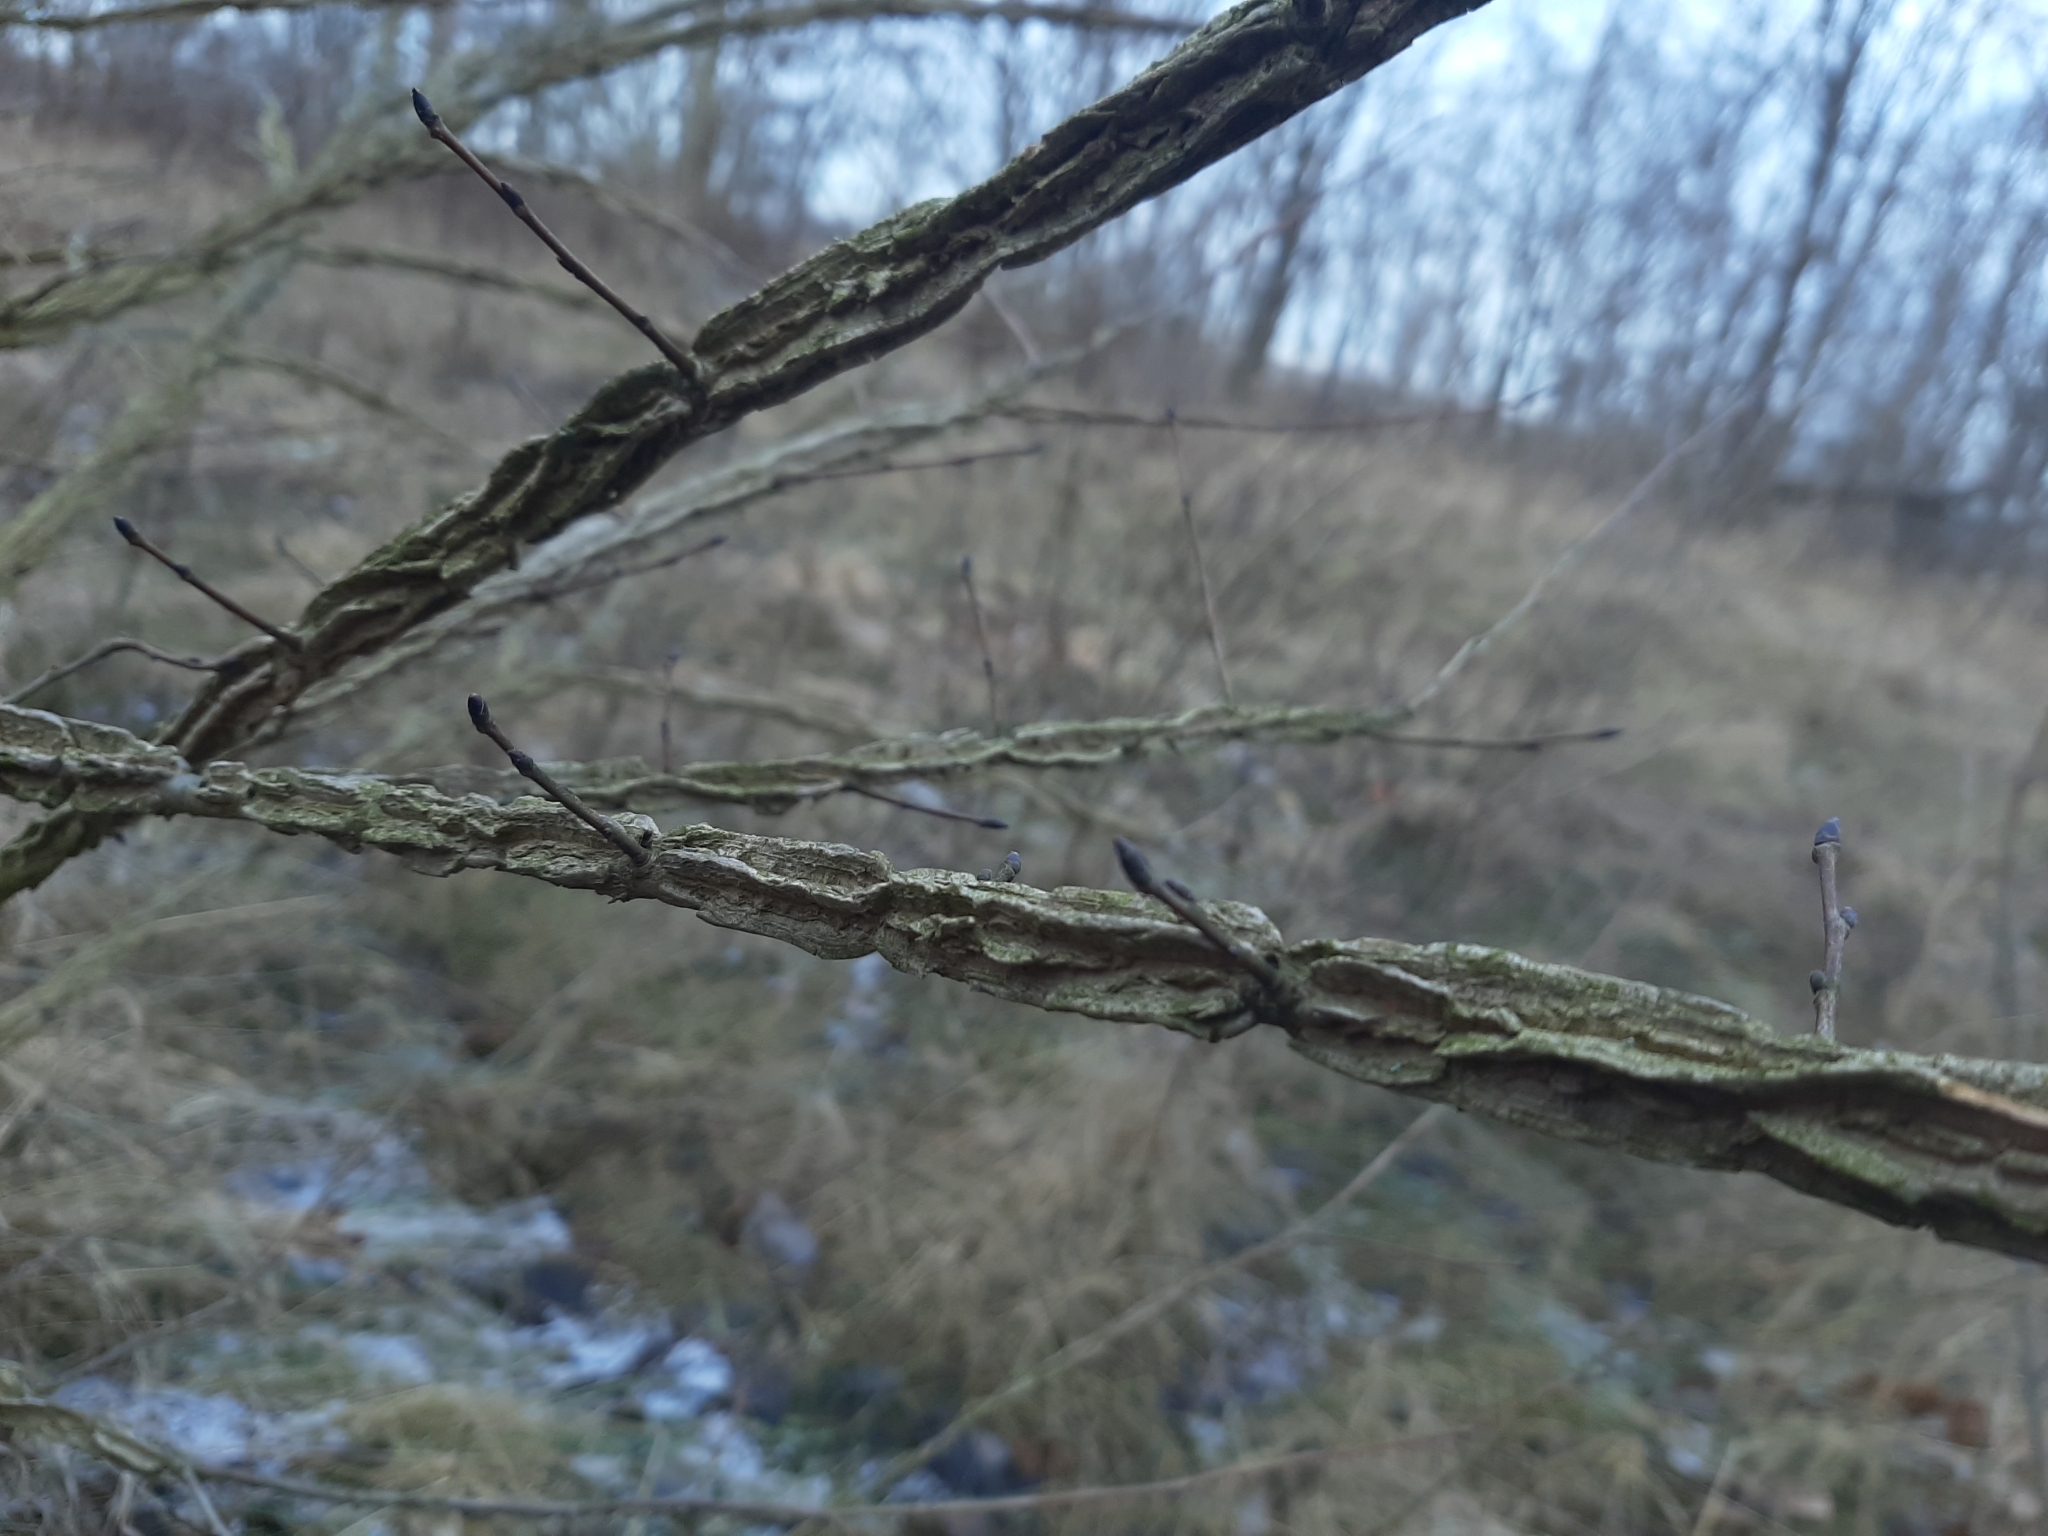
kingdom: Plantae
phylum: Tracheophyta
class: Magnoliopsida
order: Rosales
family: Ulmaceae
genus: Ulmus
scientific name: Ulmus minor
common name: Small-leaved elm
